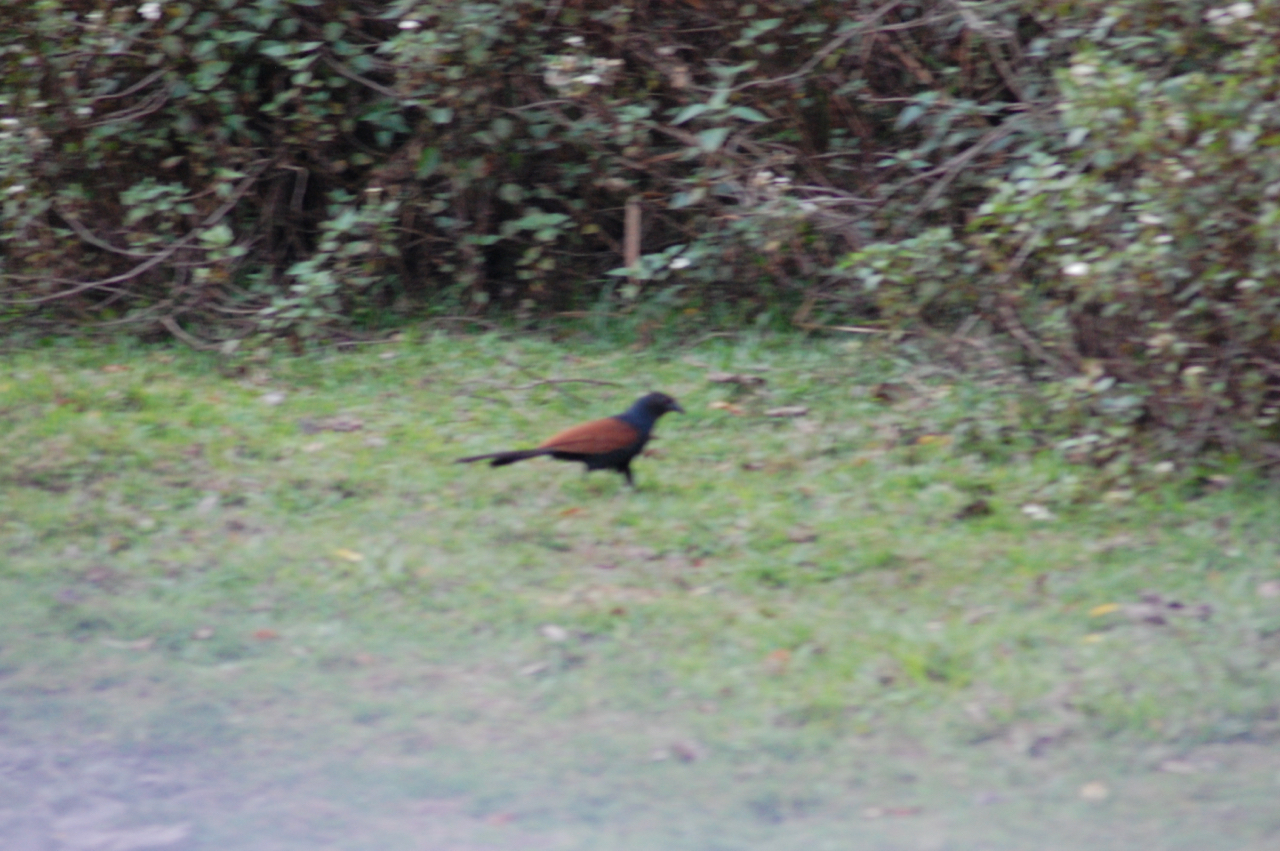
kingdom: Animalia
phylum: Chordata
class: Aves
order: Cuculiformes
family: Cuculidae
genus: Centropus
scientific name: Centropus sinensis
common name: Greater coucal
